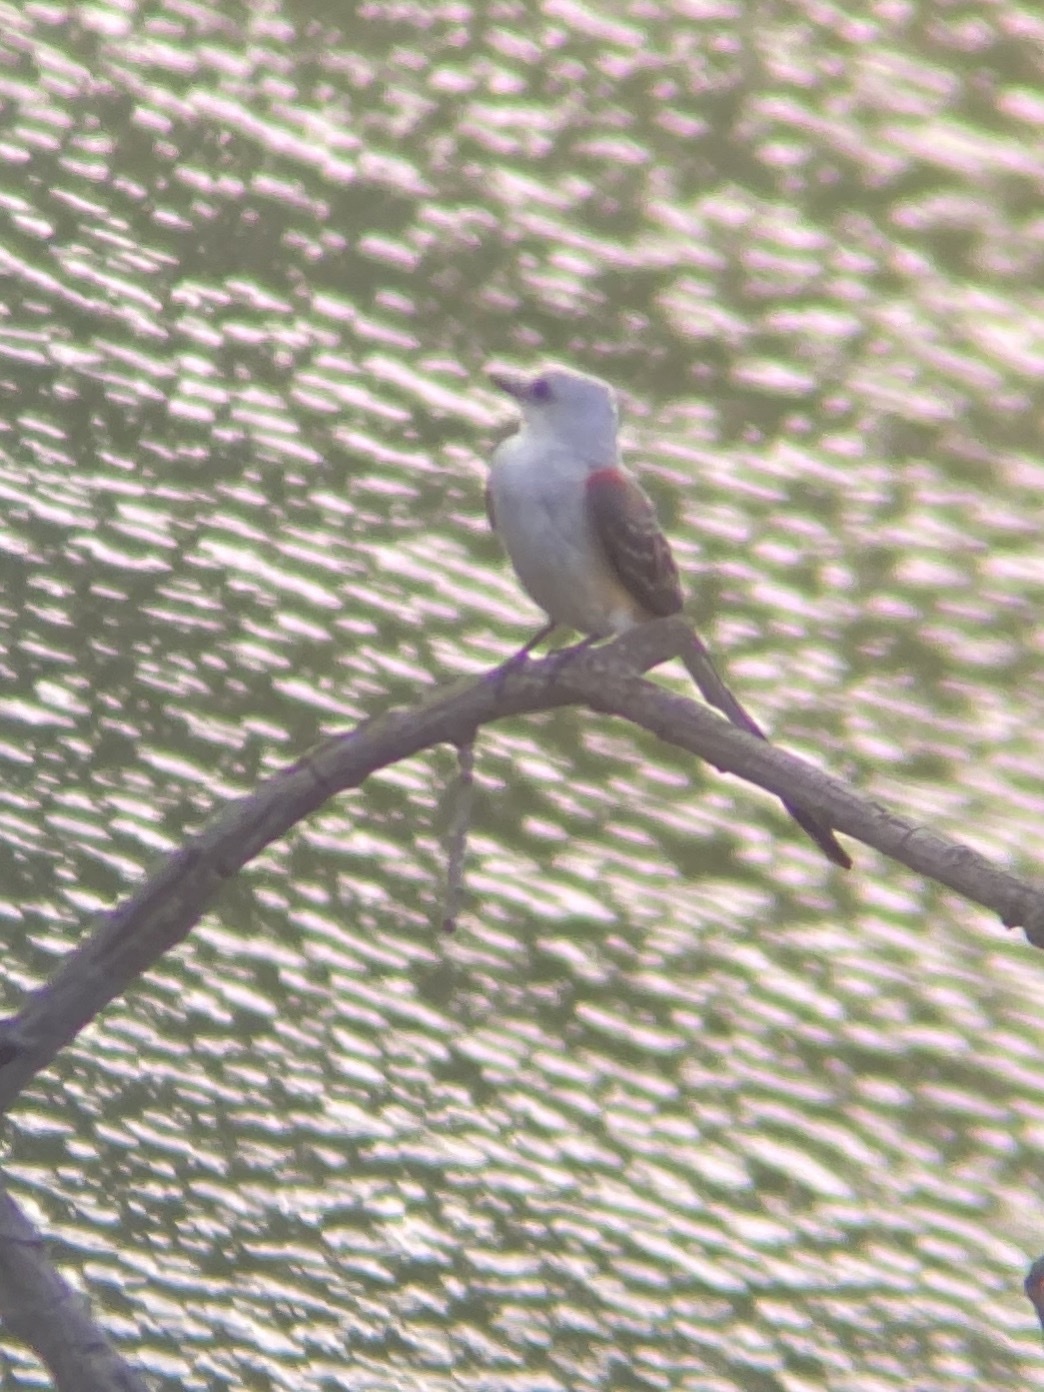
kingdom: Animalia
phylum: Chordata
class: Aves
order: Passeriformes
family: Tyrannidae
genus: Tyrannus
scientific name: Tyrannus forficatus
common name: Scissor-tailed flycatcher
